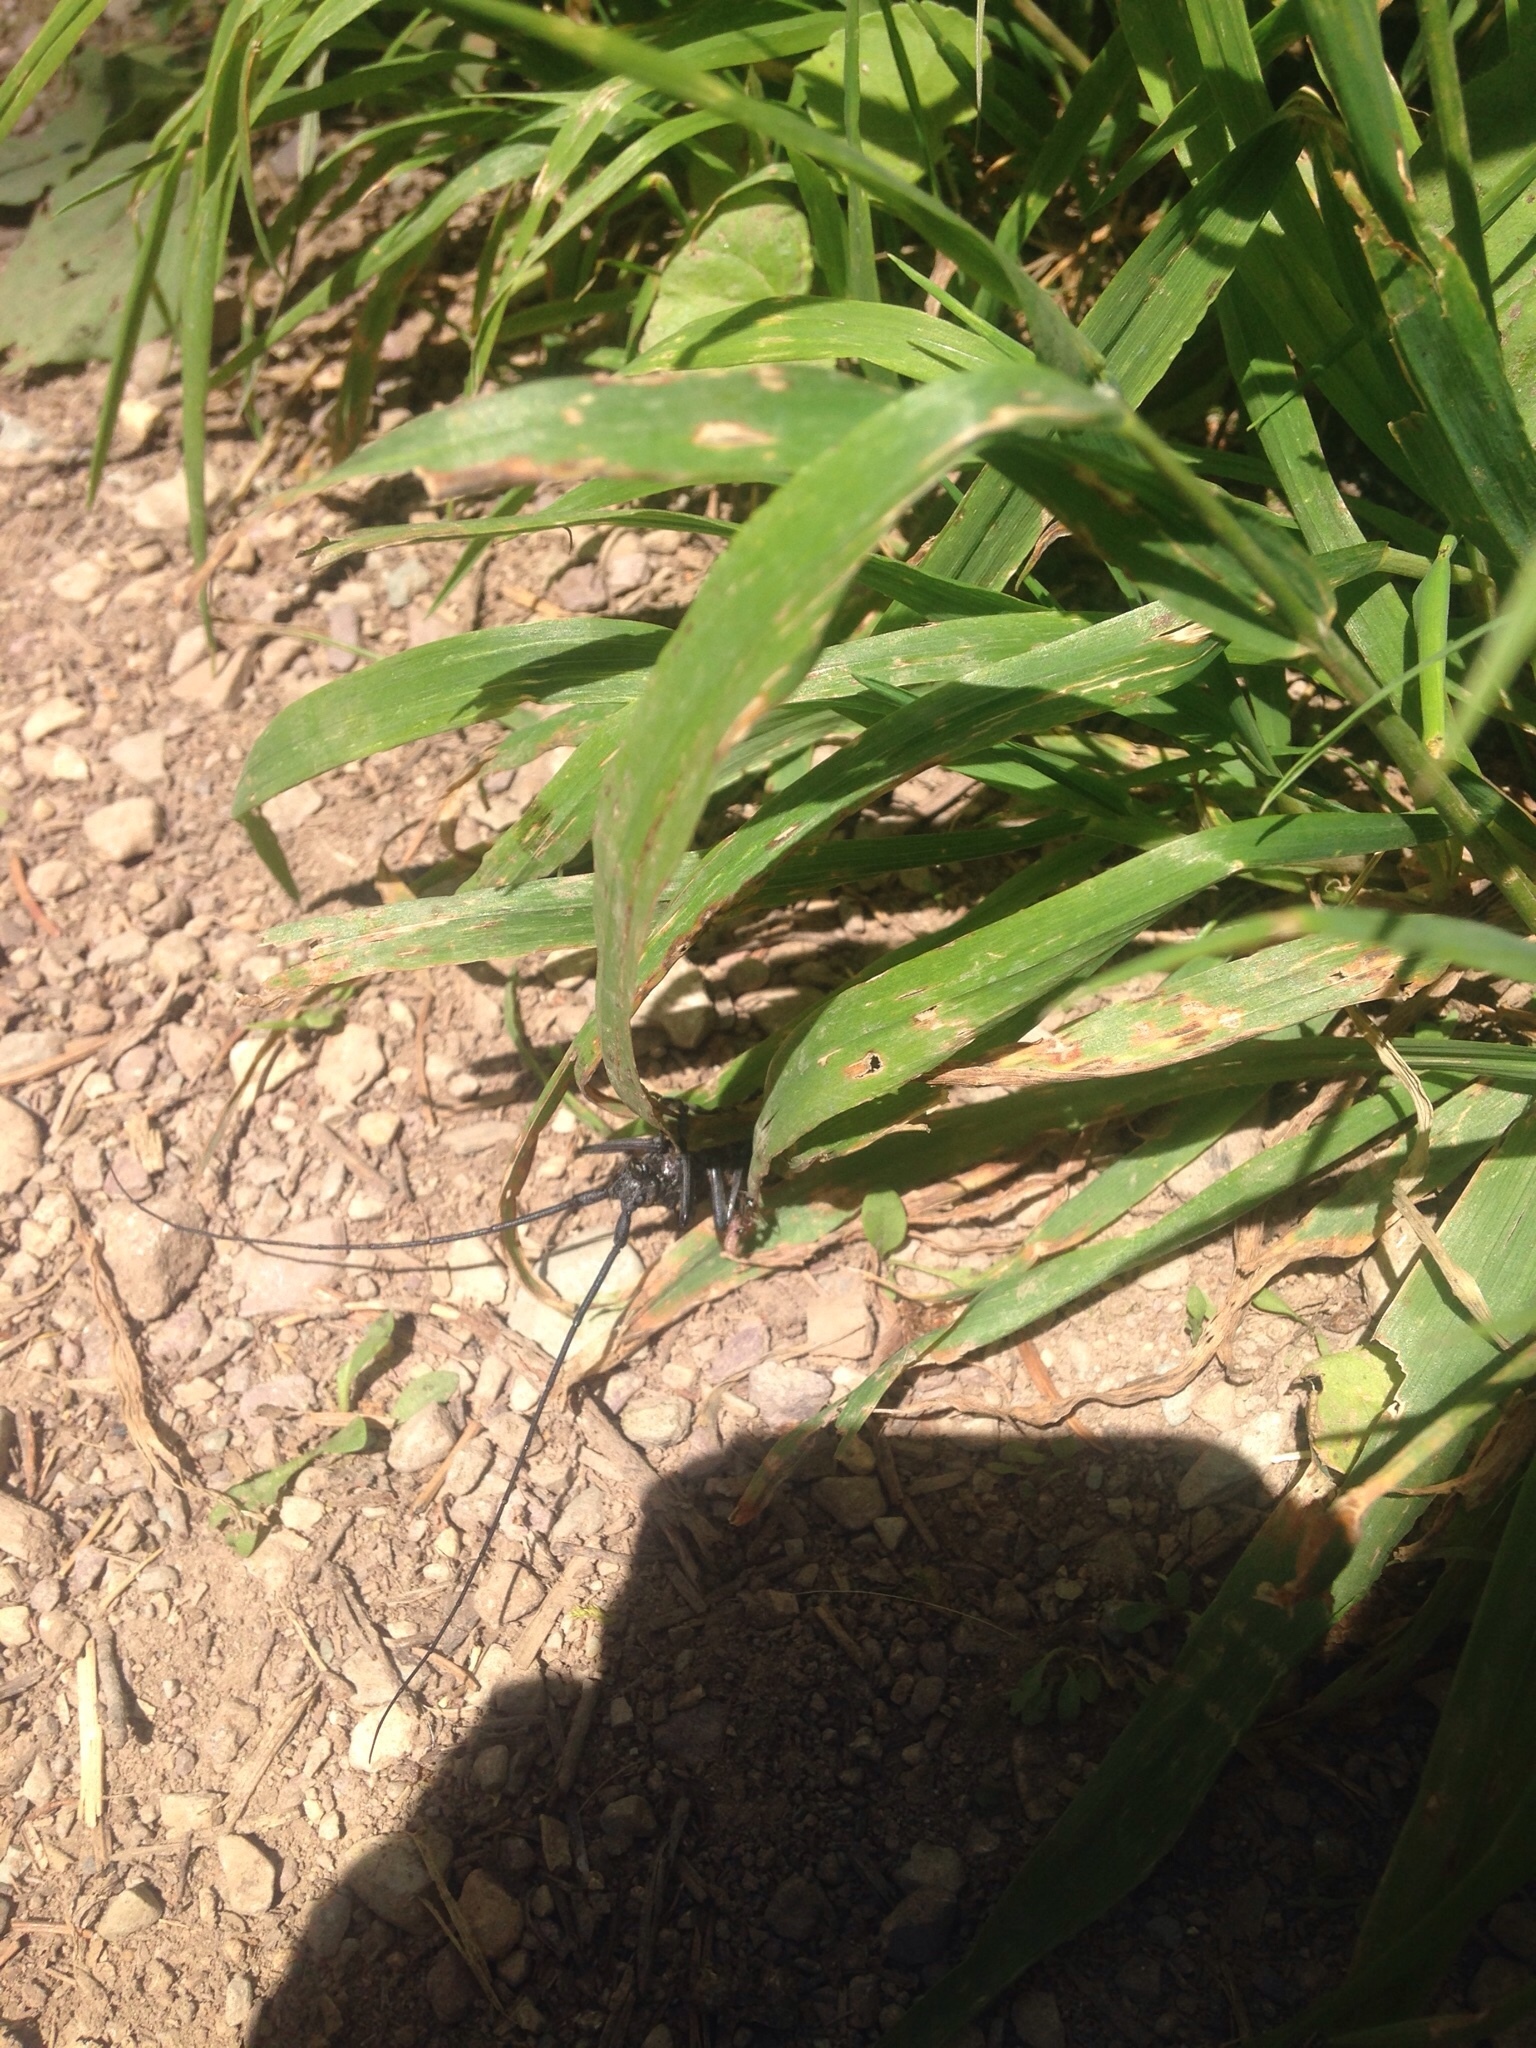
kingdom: Animalia
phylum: Arthropoda
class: Insecta
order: Coleoptera
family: Cerambycidae
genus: Monochamus
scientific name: Monochamus
